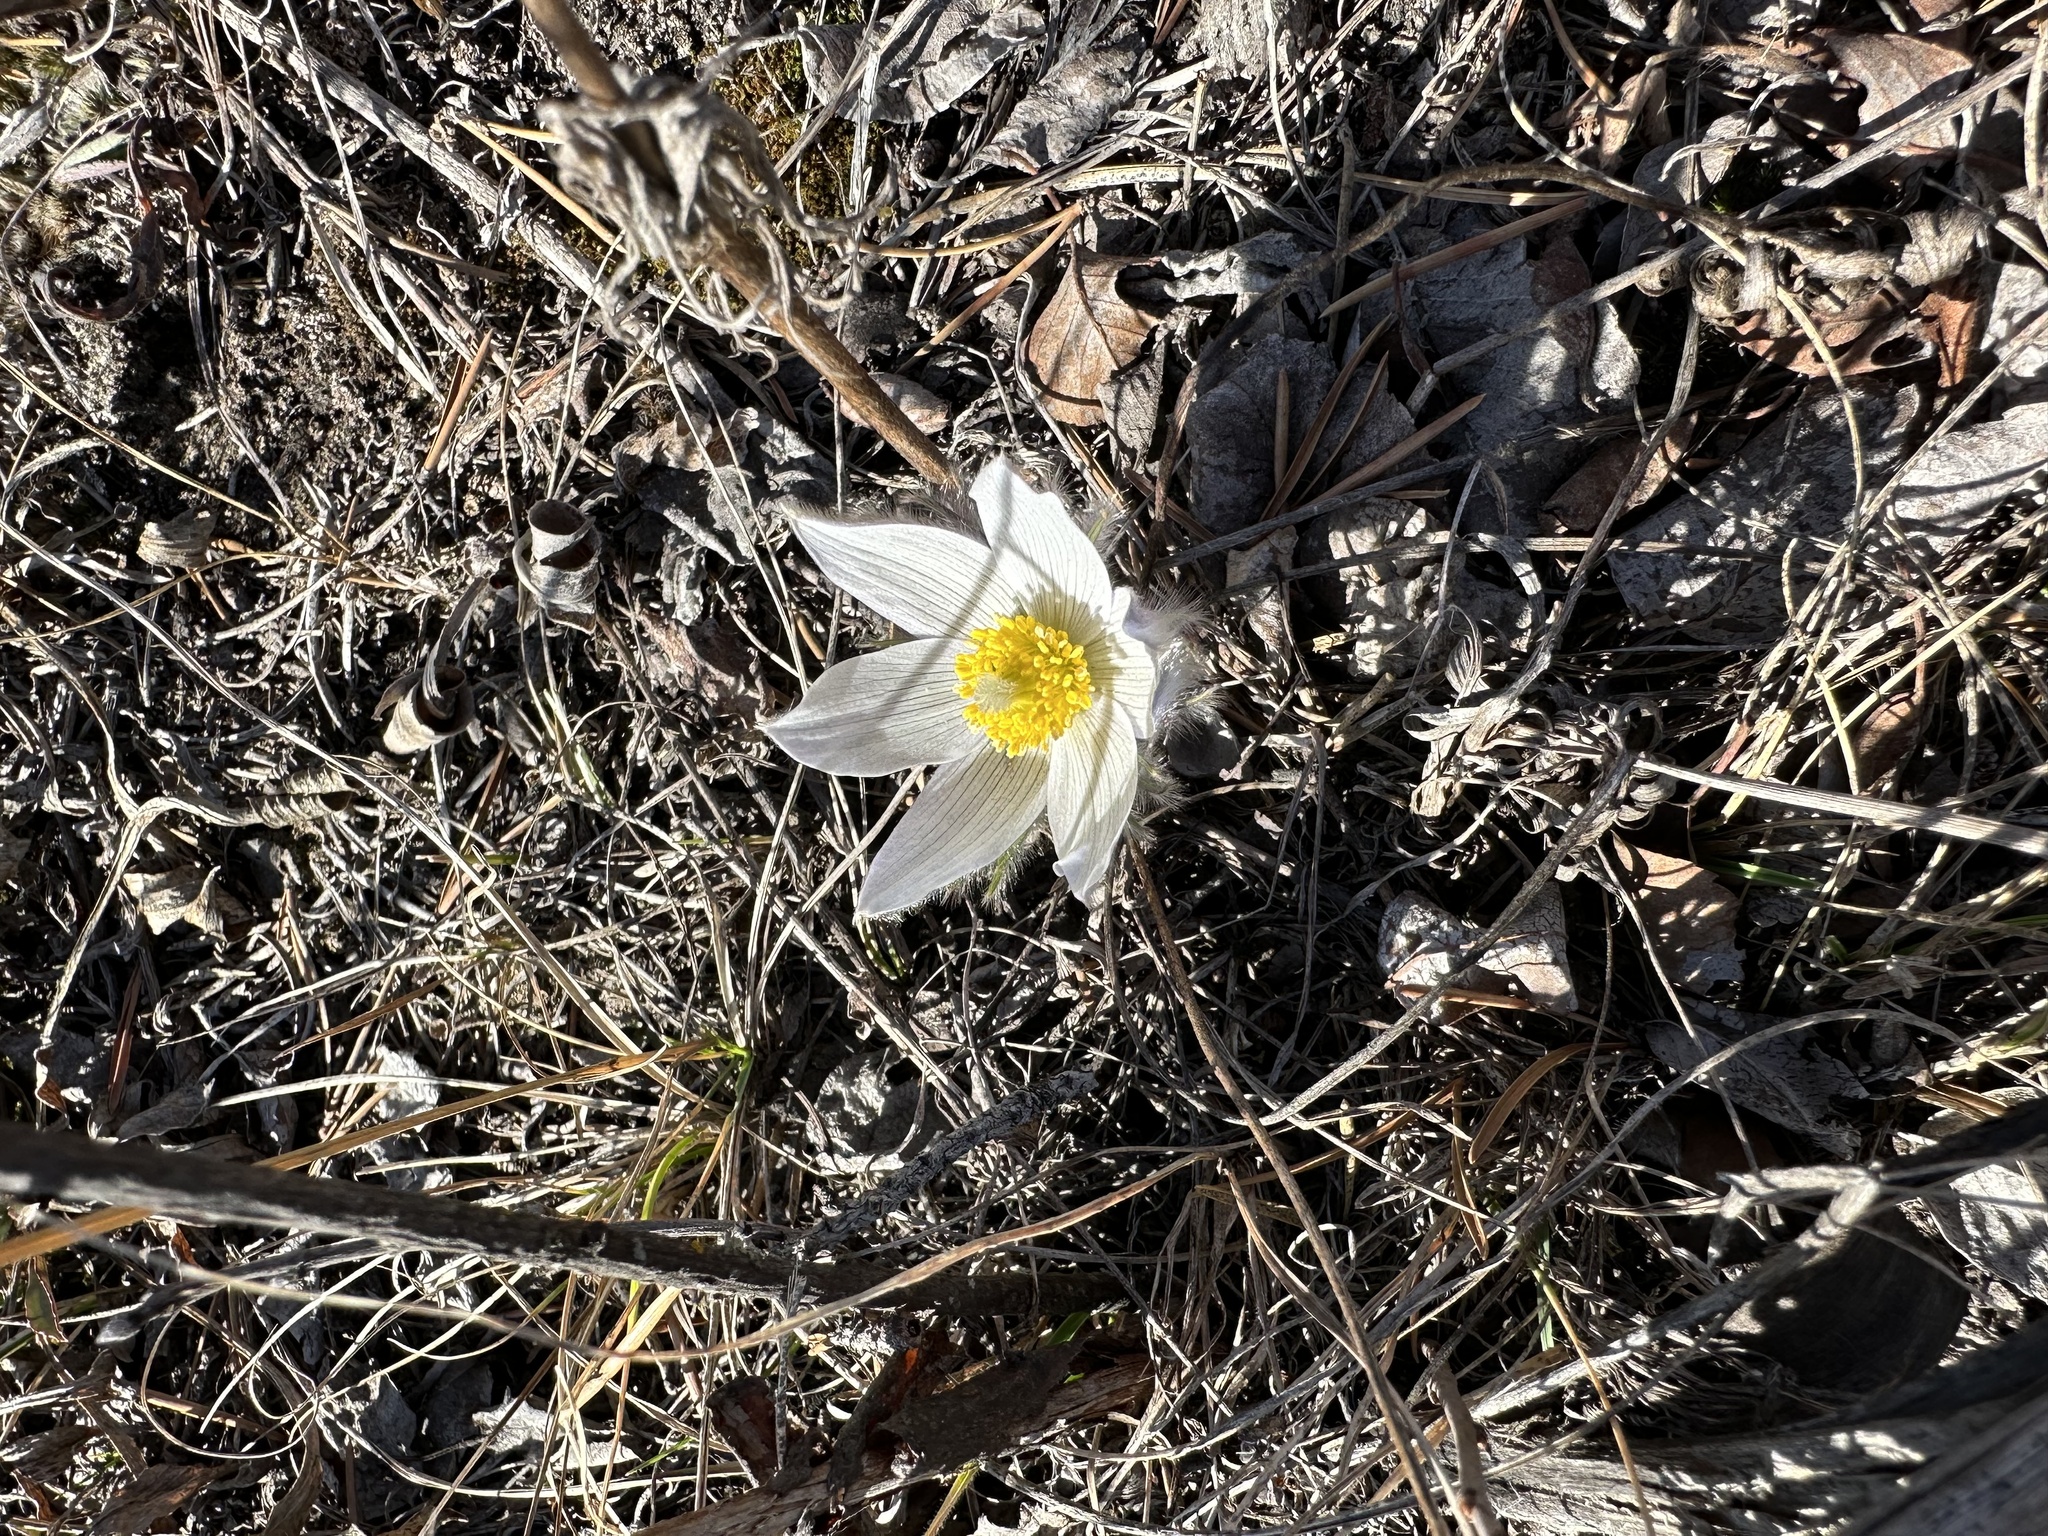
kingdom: Plantae
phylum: Tracheophyta
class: Magnoliopsida
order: Ranunculales
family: Ranunculaceae
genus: Pulsatilla
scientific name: Pulsatilla nuttalliana
